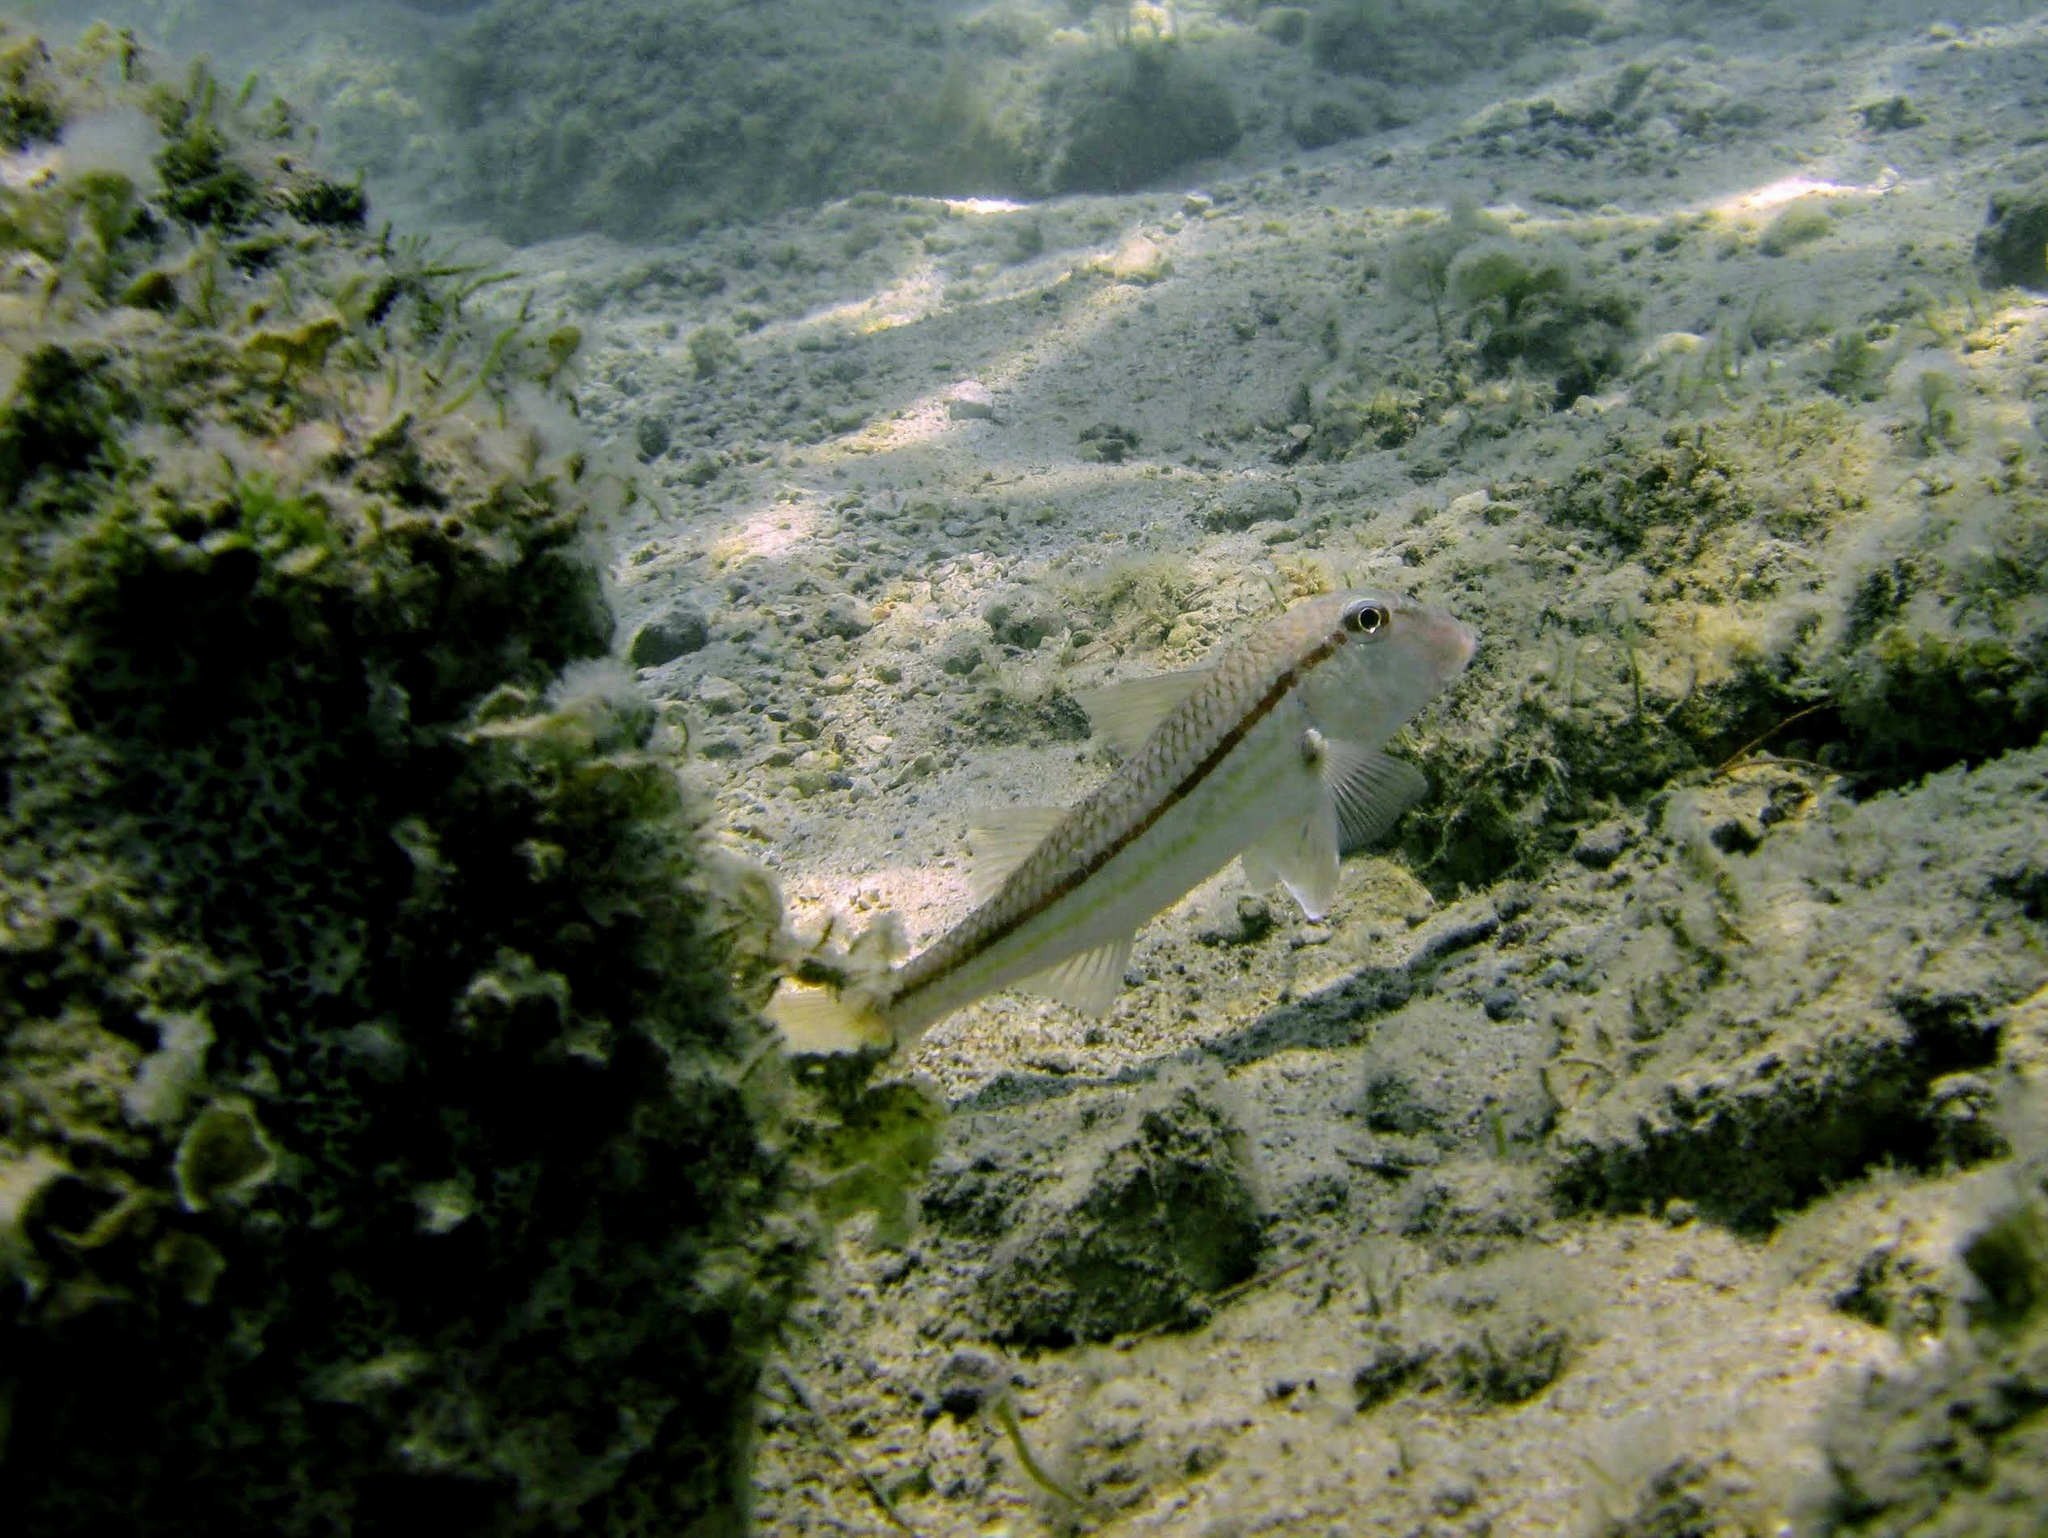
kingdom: Animalia
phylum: Chordata
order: Perciformes
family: Mullidae
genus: Mullus
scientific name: Mullus barbatus
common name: Blunt-snouted mullet
